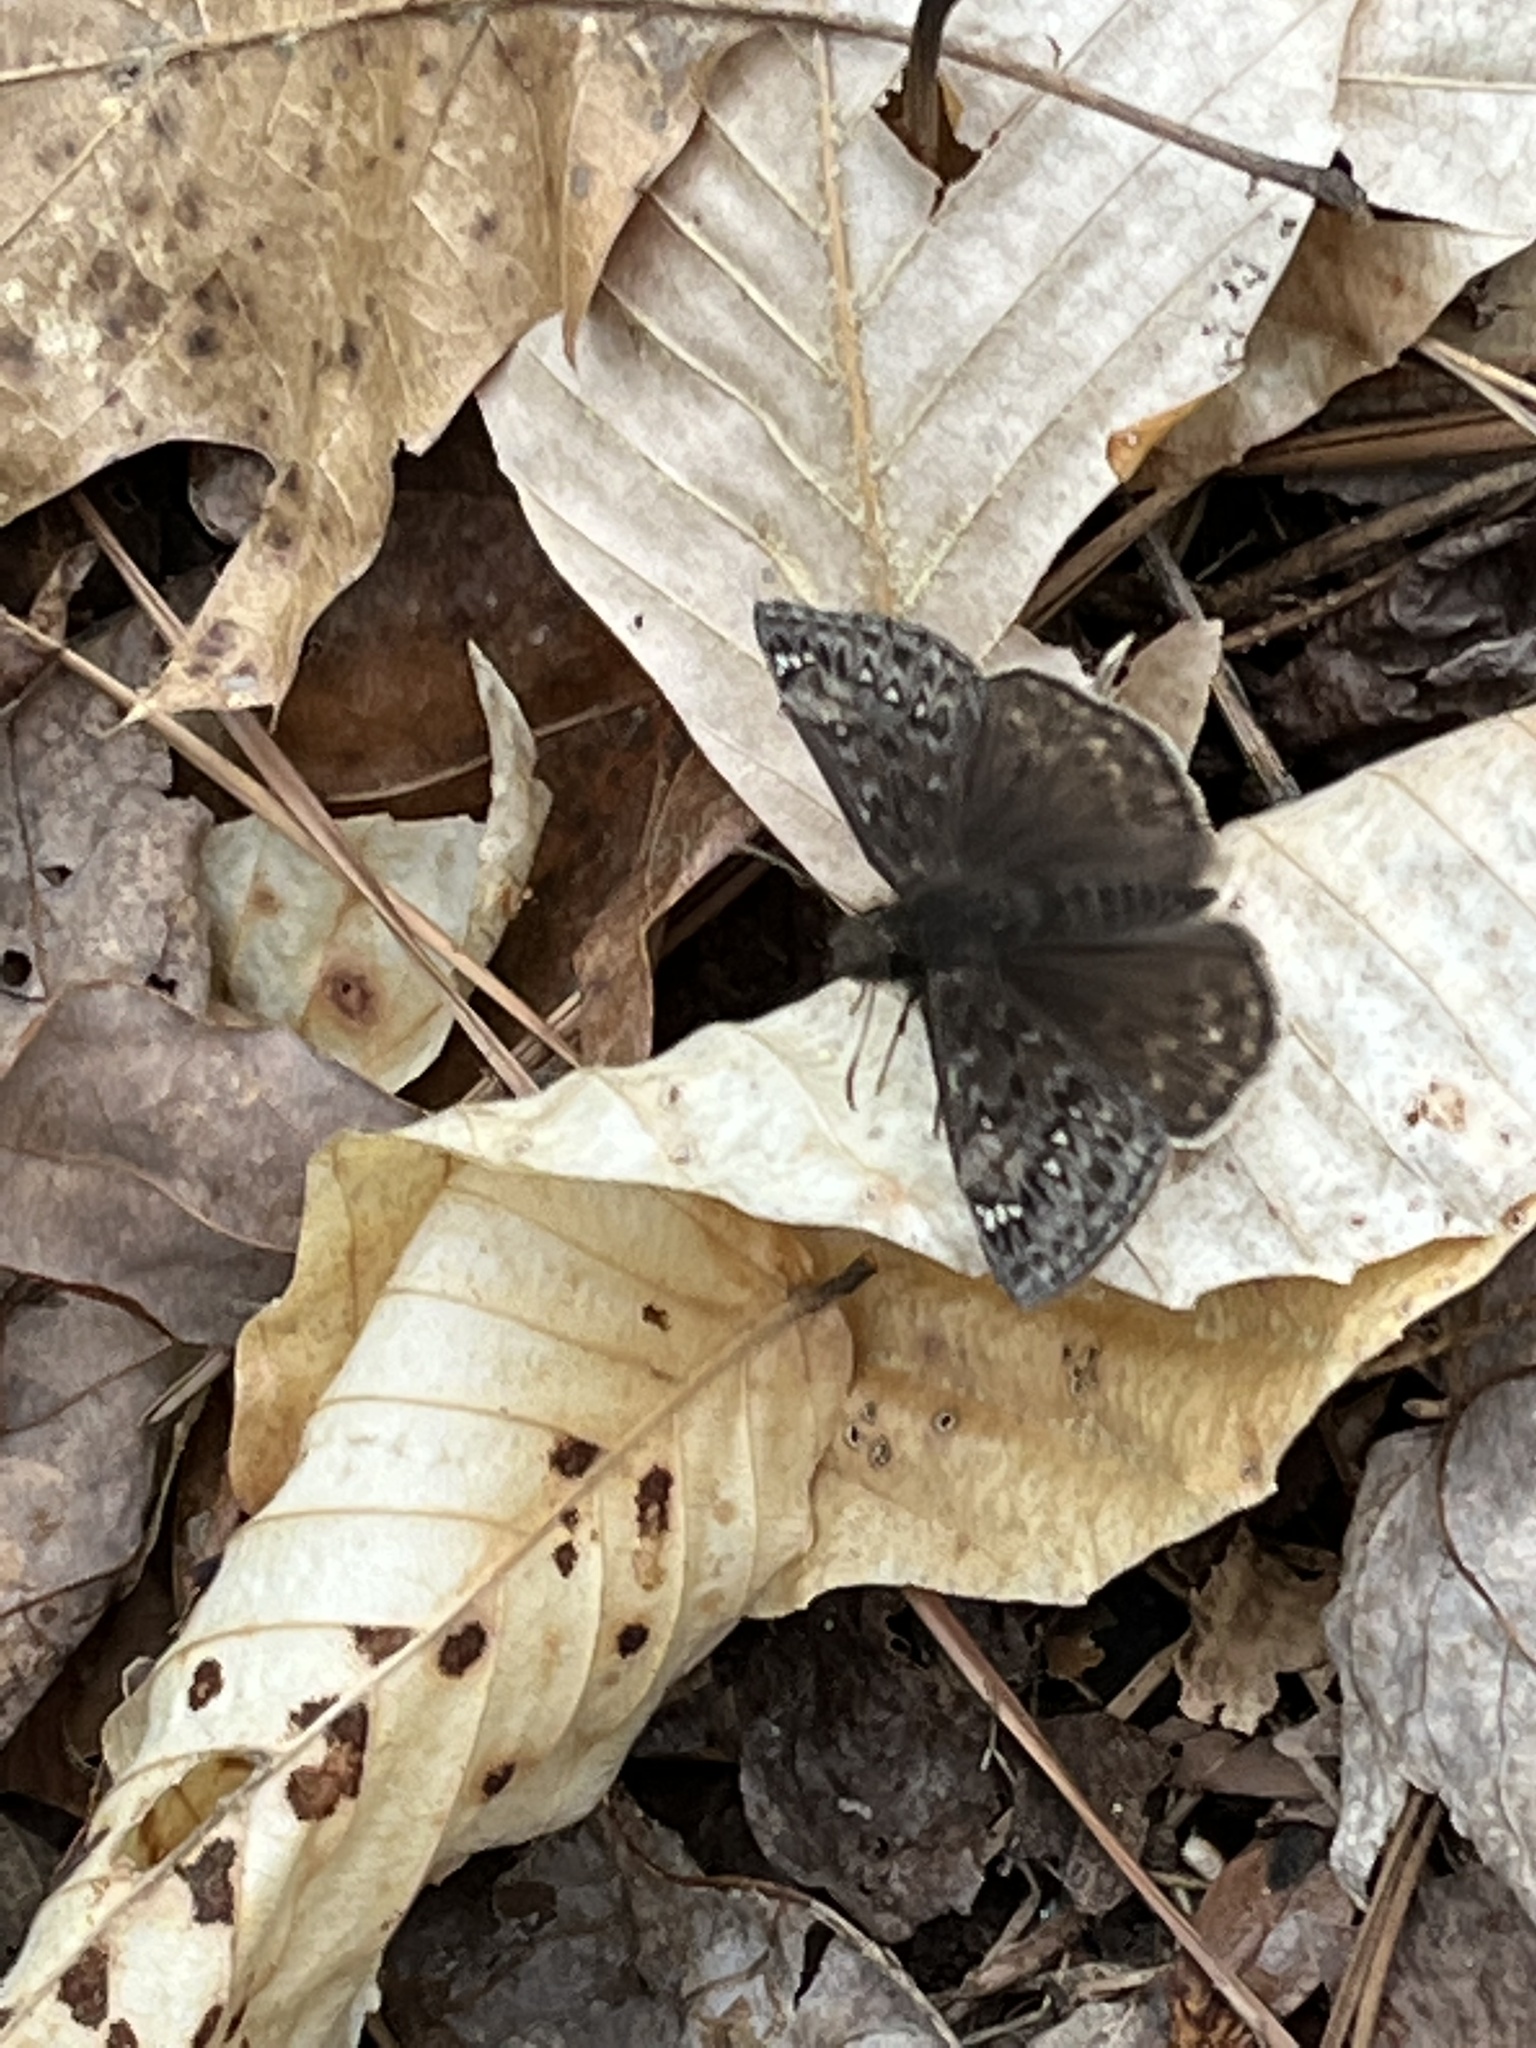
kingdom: Animalia
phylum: Arthropoda
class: Insecta
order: Lepidoptera
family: Hesperiidae
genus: Erynnis
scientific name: Erynnis juvenalis
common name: Juvenal's duskywing
